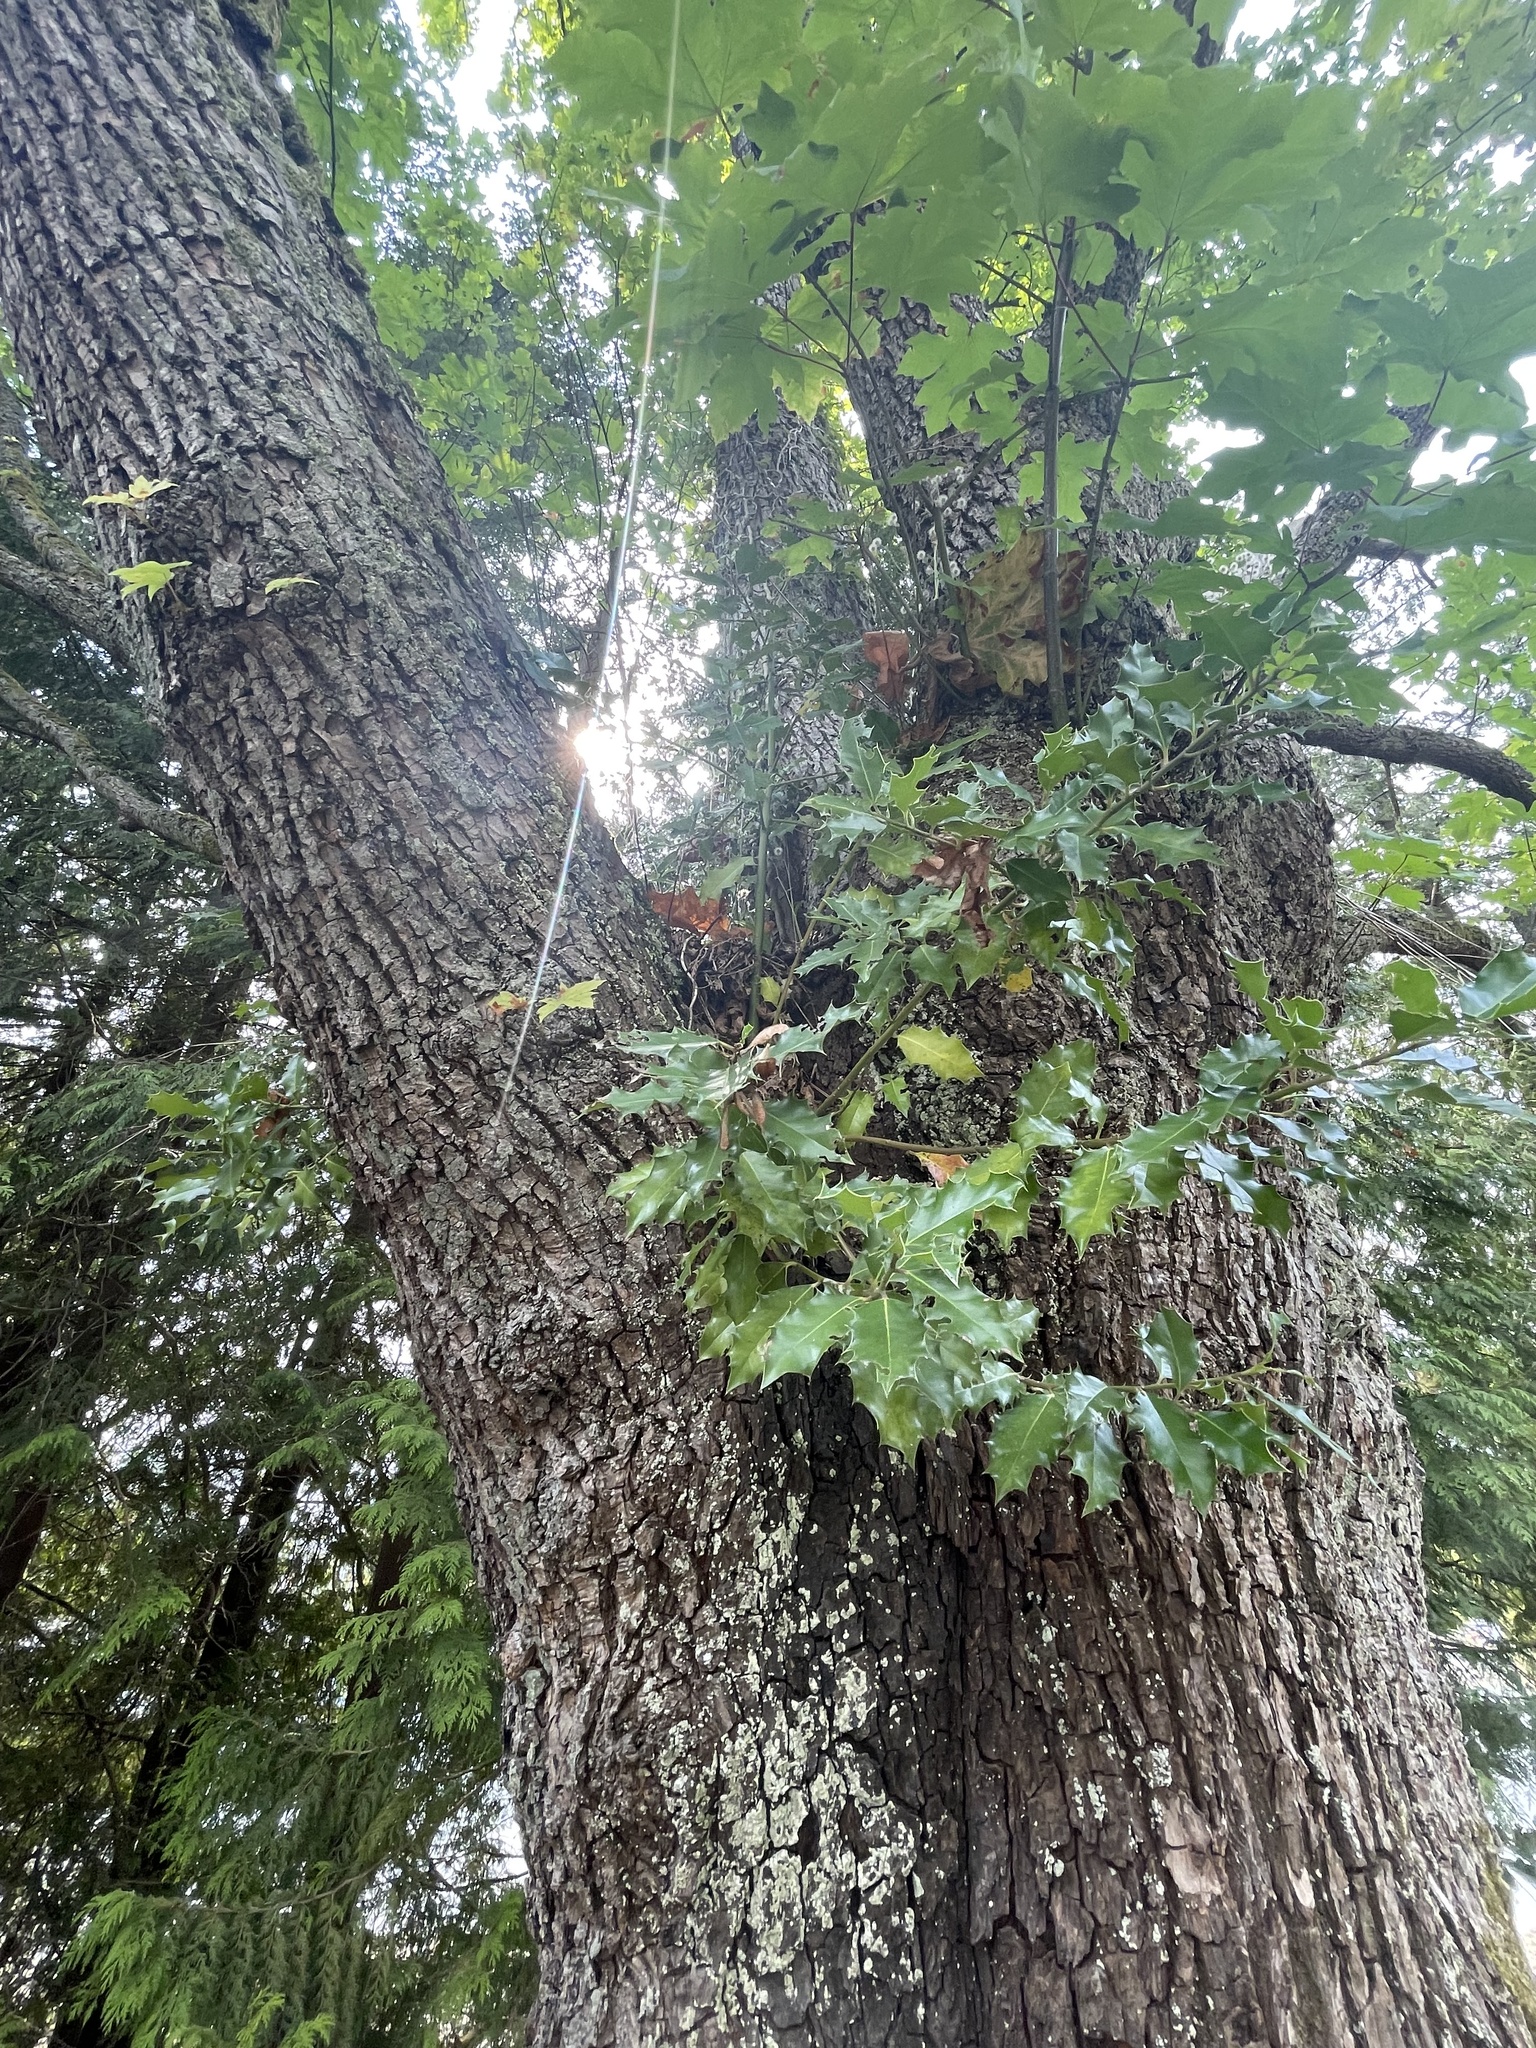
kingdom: Plantae
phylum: Tracheophyta
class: Magnoliopsida
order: Aquifoliales
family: Aquifoliaceae
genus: Ilex
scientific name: Ilex aquifolium
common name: English holly
